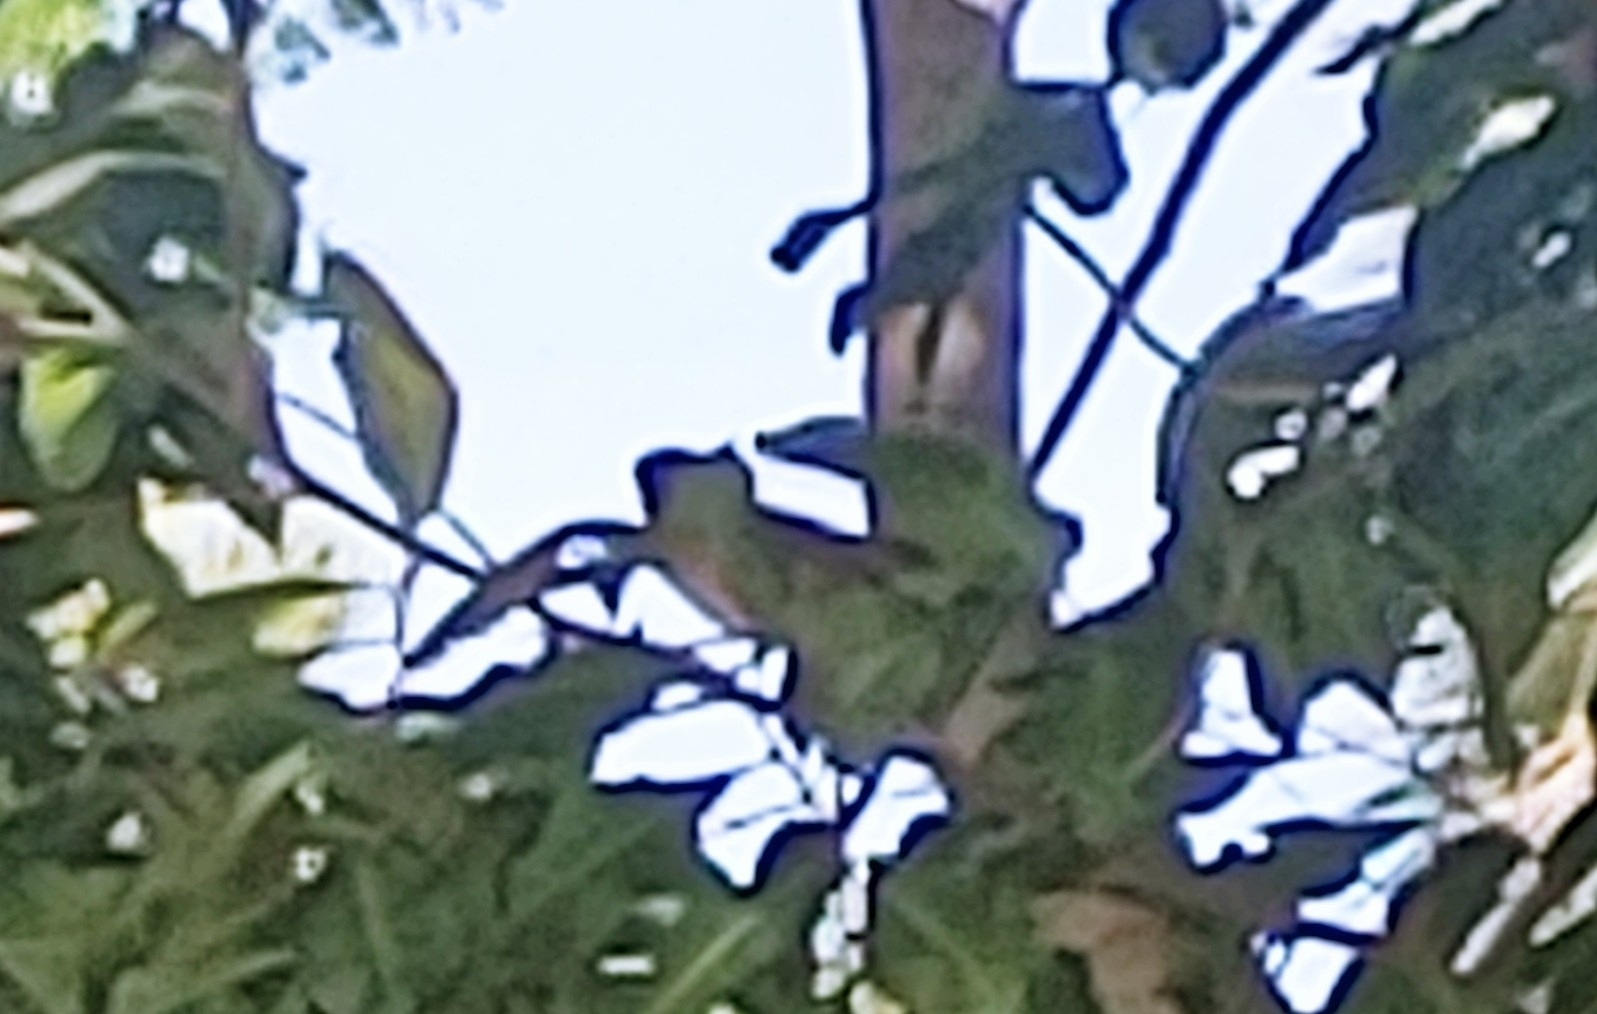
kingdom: Animalia
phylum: Chordata
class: Aves
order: Passeriformes
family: Passeridae
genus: Passer
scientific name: Passer domesticus
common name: House sparrow
